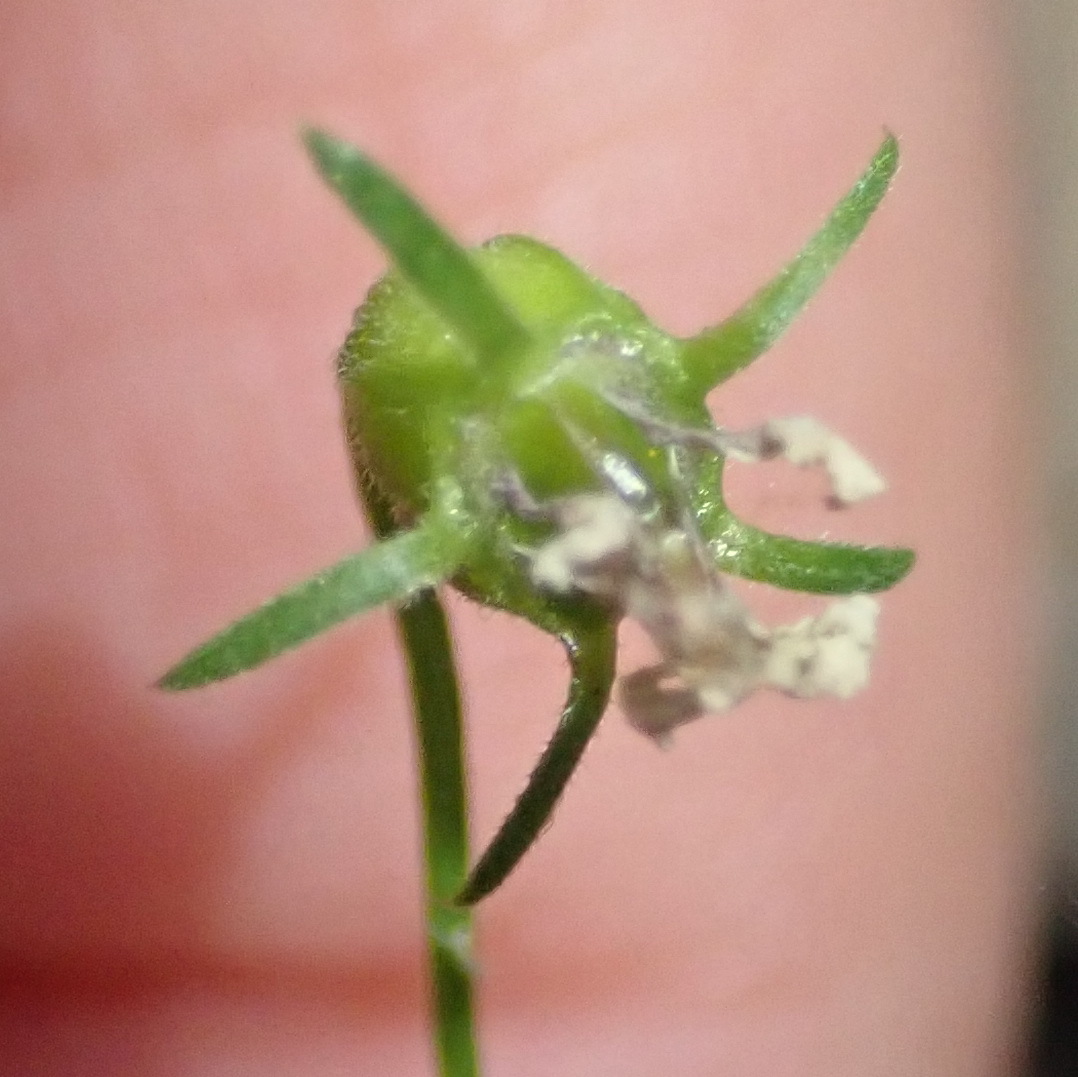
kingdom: Plantae
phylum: Tracheophyta
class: Magnoliopsida
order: Asterales
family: Campanulaceae
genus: Monopsis
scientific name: Monopsis alba
